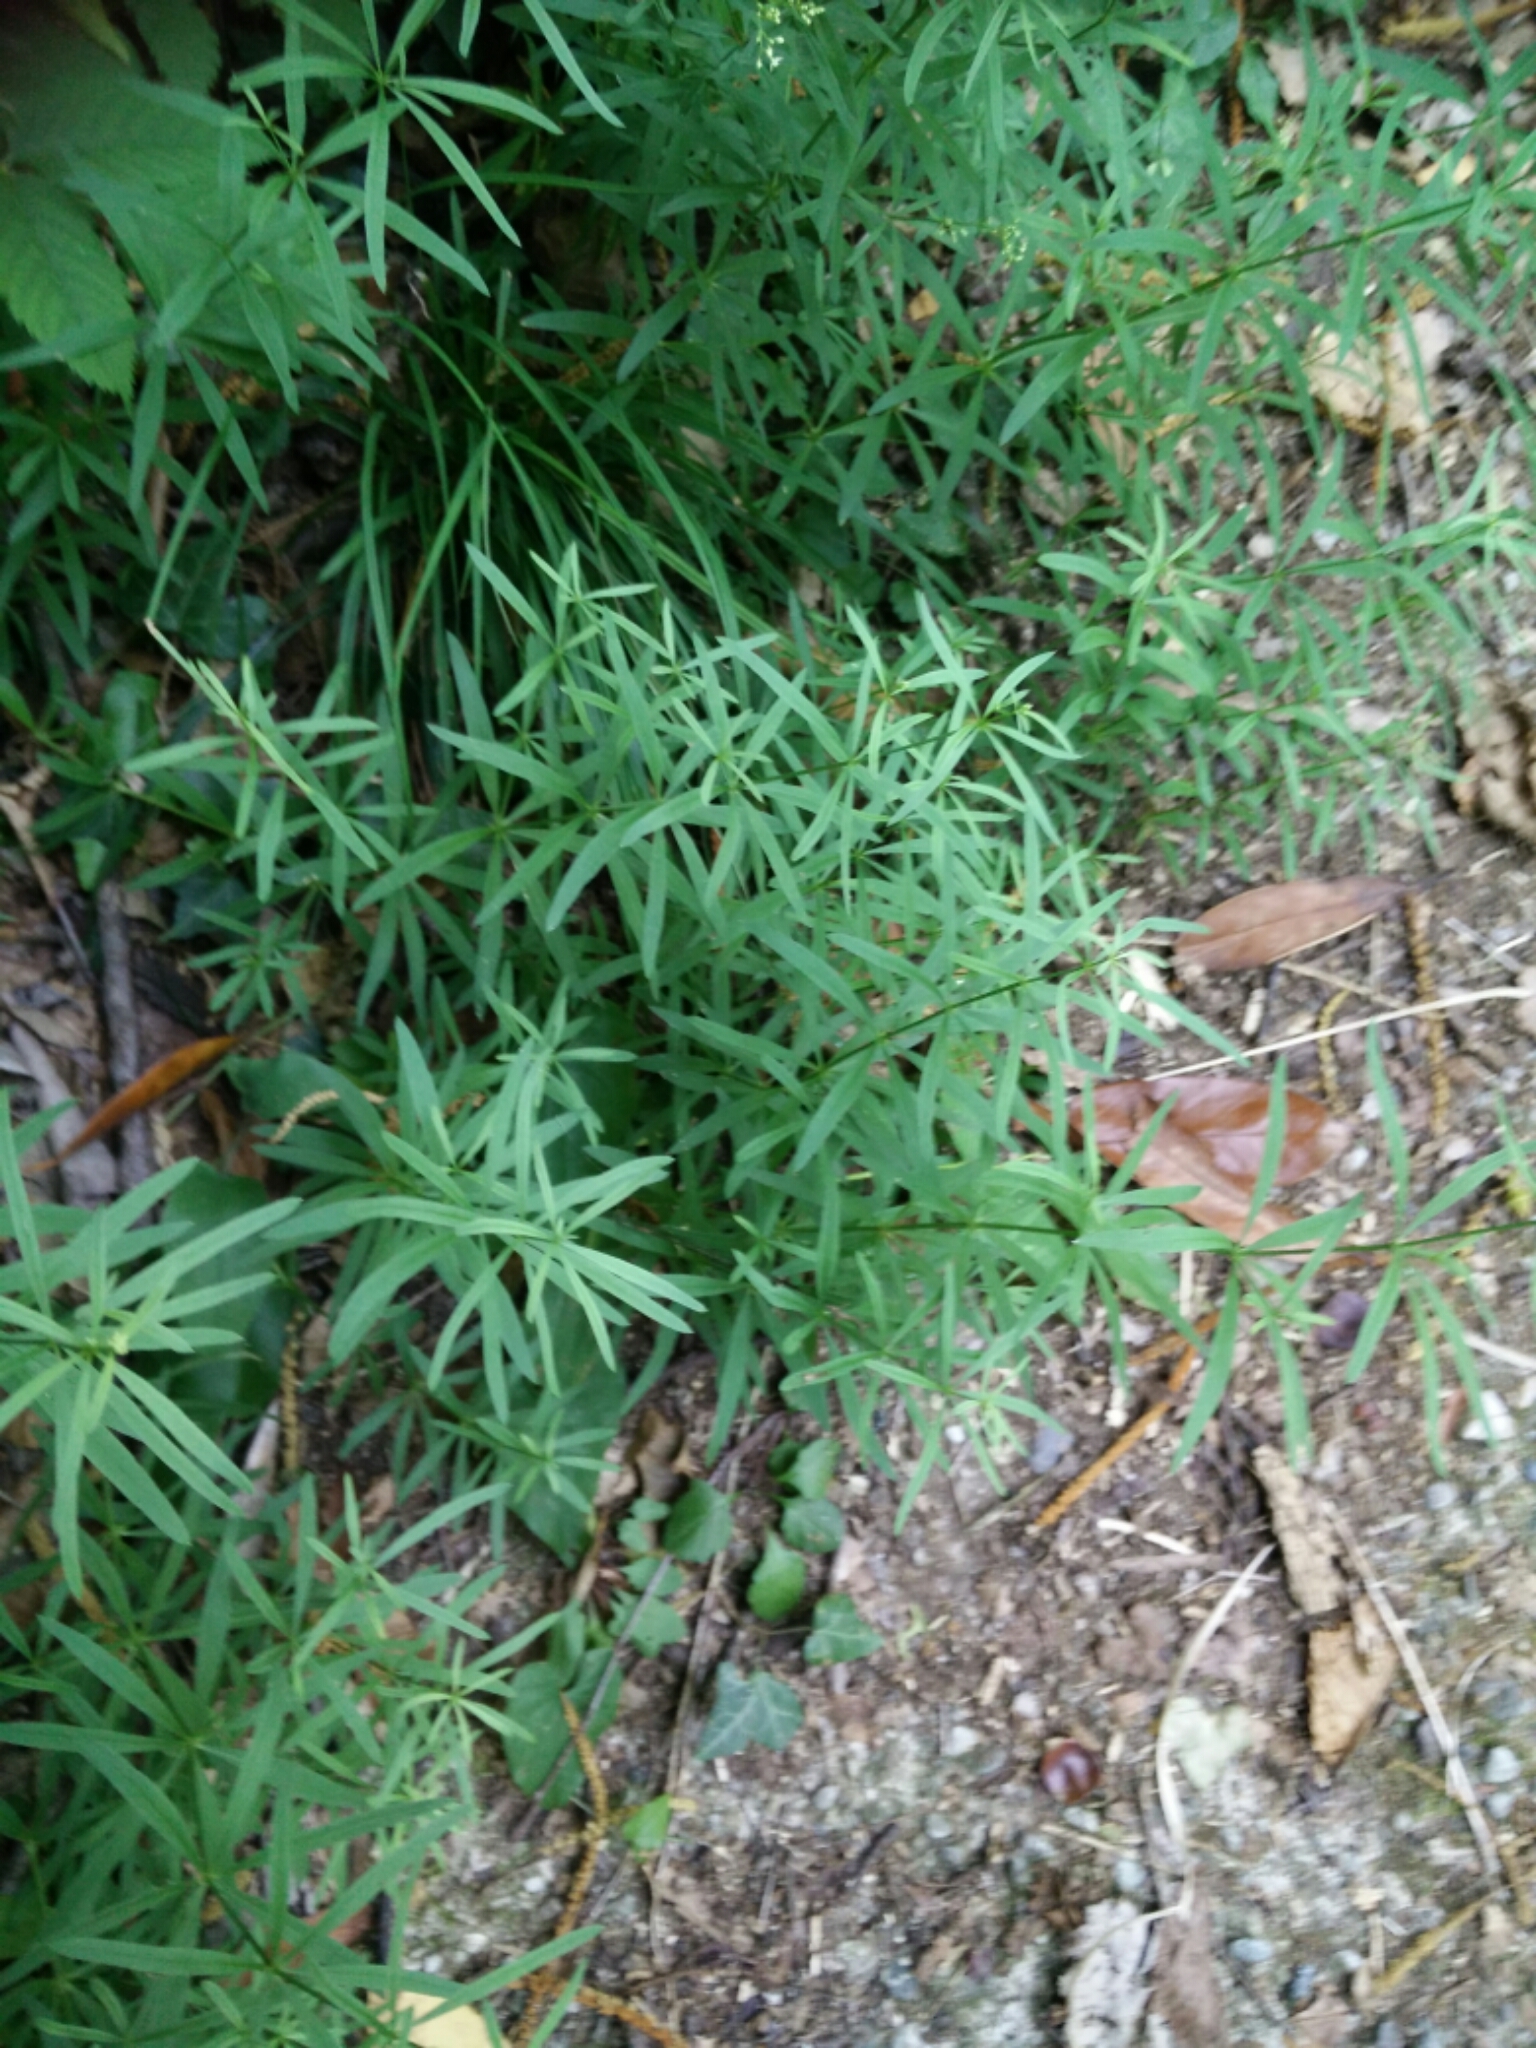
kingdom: Plantae
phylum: Tracheophyta
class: Magnoliopsida
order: Gentianales
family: Rubiaceae
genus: Galium
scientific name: Galium laevigatum
